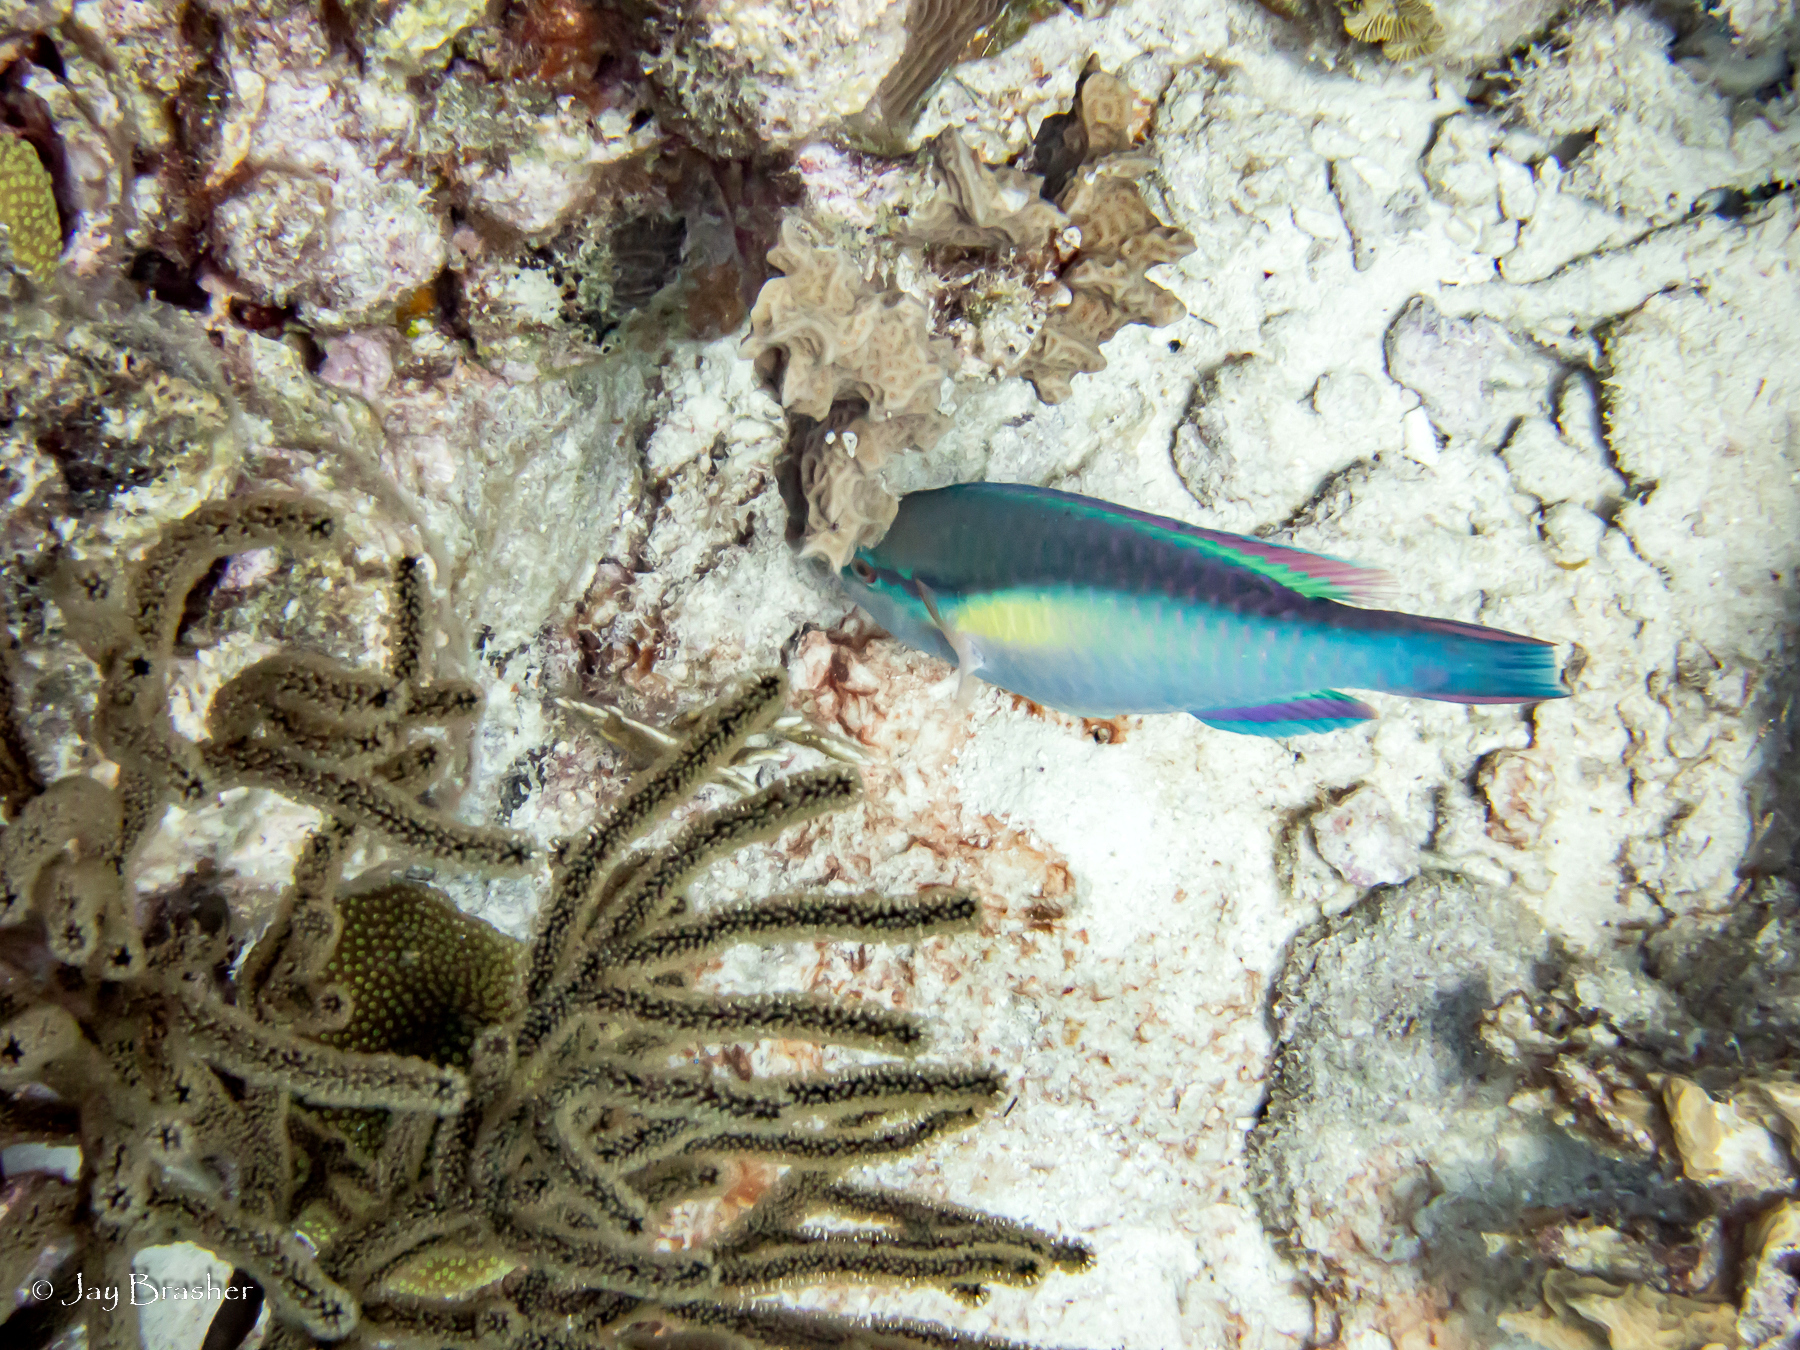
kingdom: Animalia
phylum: Chordata
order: Perciformes
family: Scaridae
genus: Scarus
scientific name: Scarus taeniopterus
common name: Princess parrotfish
